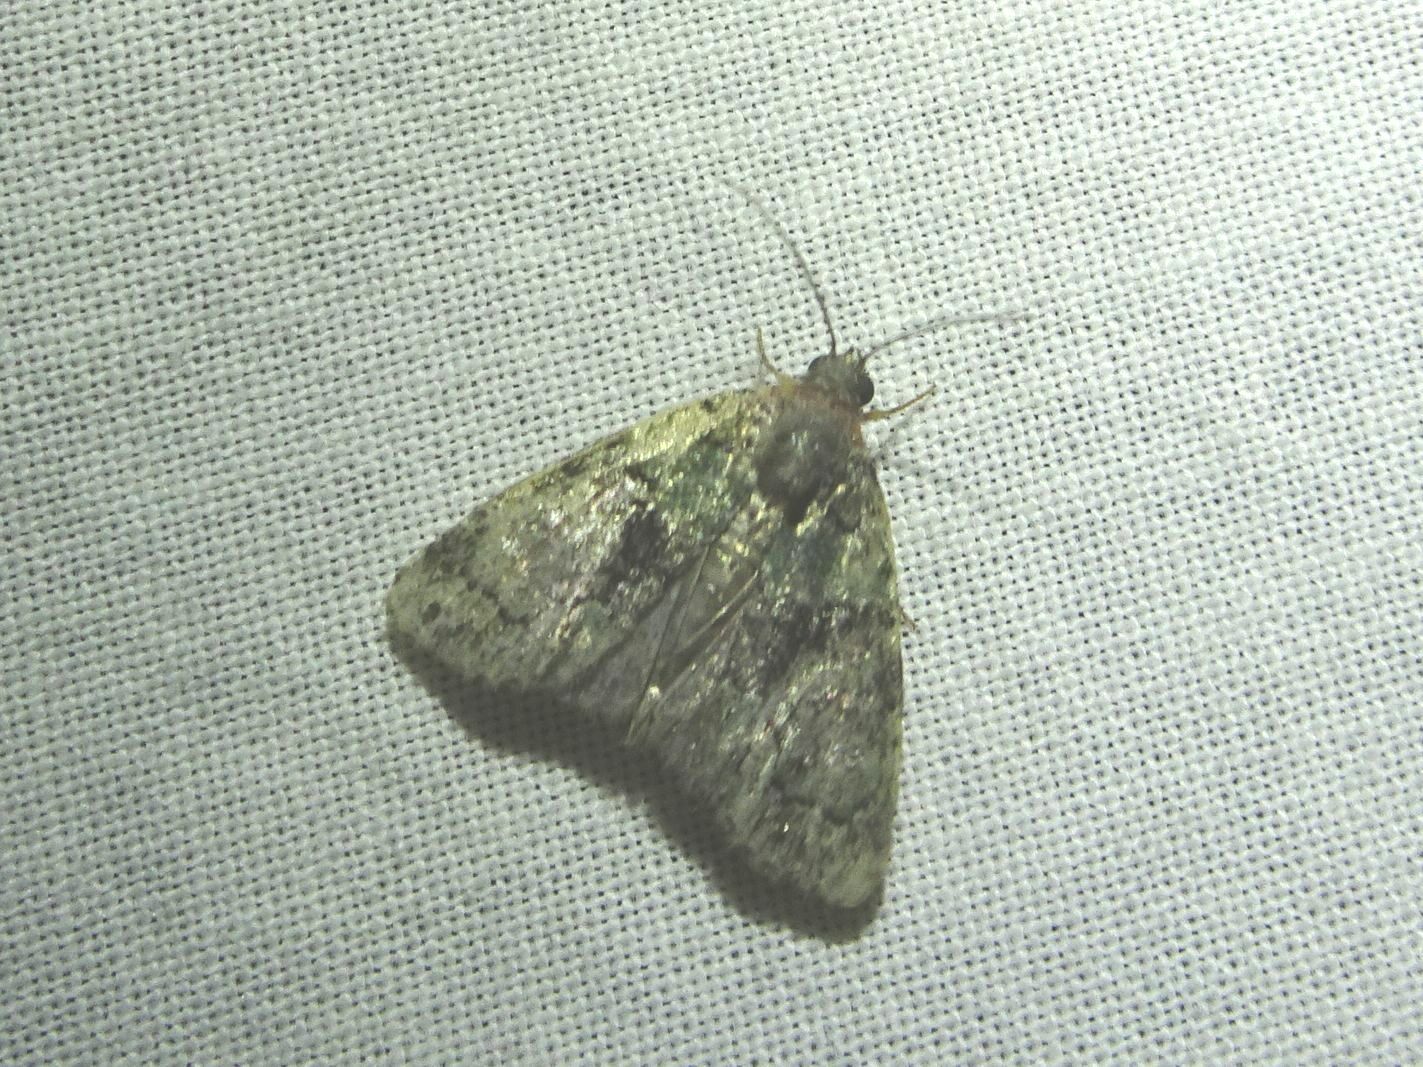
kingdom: Animalia
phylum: Arthropoda
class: Insecta
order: Lepidoptera
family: Noctuidae
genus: Cryphia
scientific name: Cryphia algae
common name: Tree-lichen beauty
